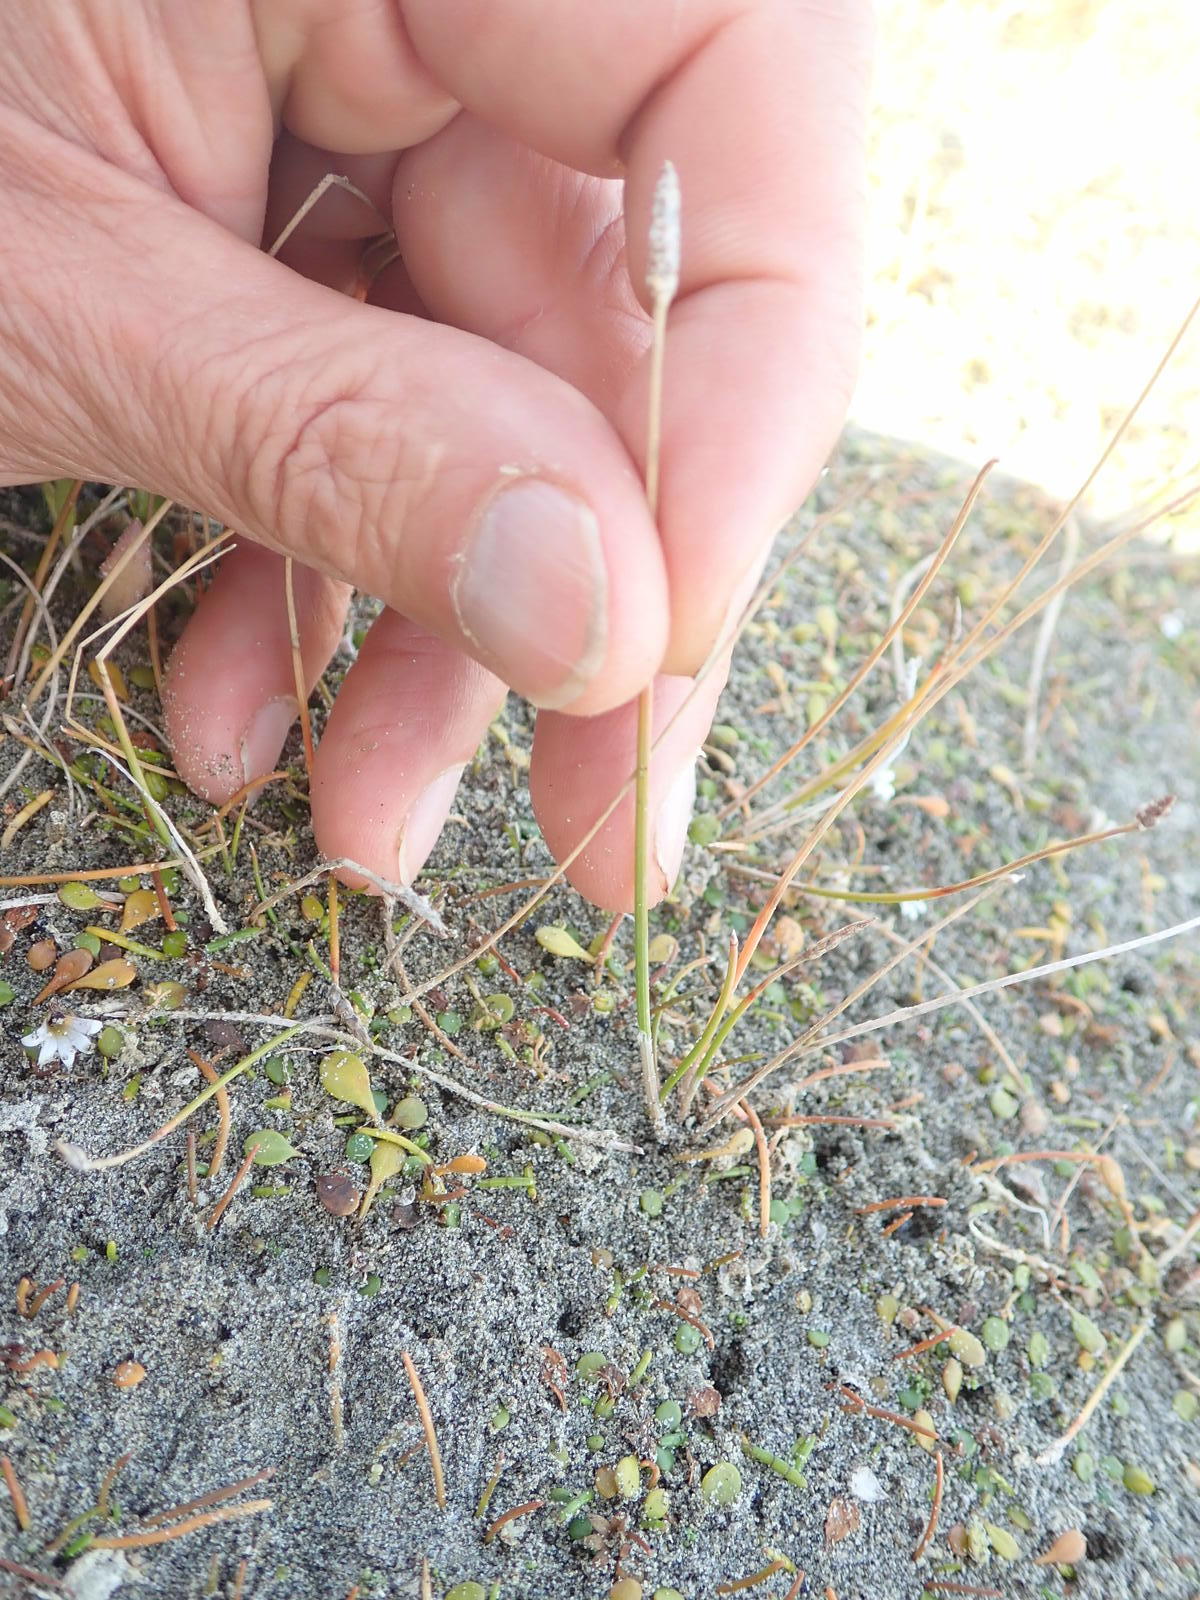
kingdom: Plantae
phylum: Tracheophyta
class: Liliopsida
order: Alismatales
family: Juncaginaceae
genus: Triglochin
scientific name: Triglochin striata
